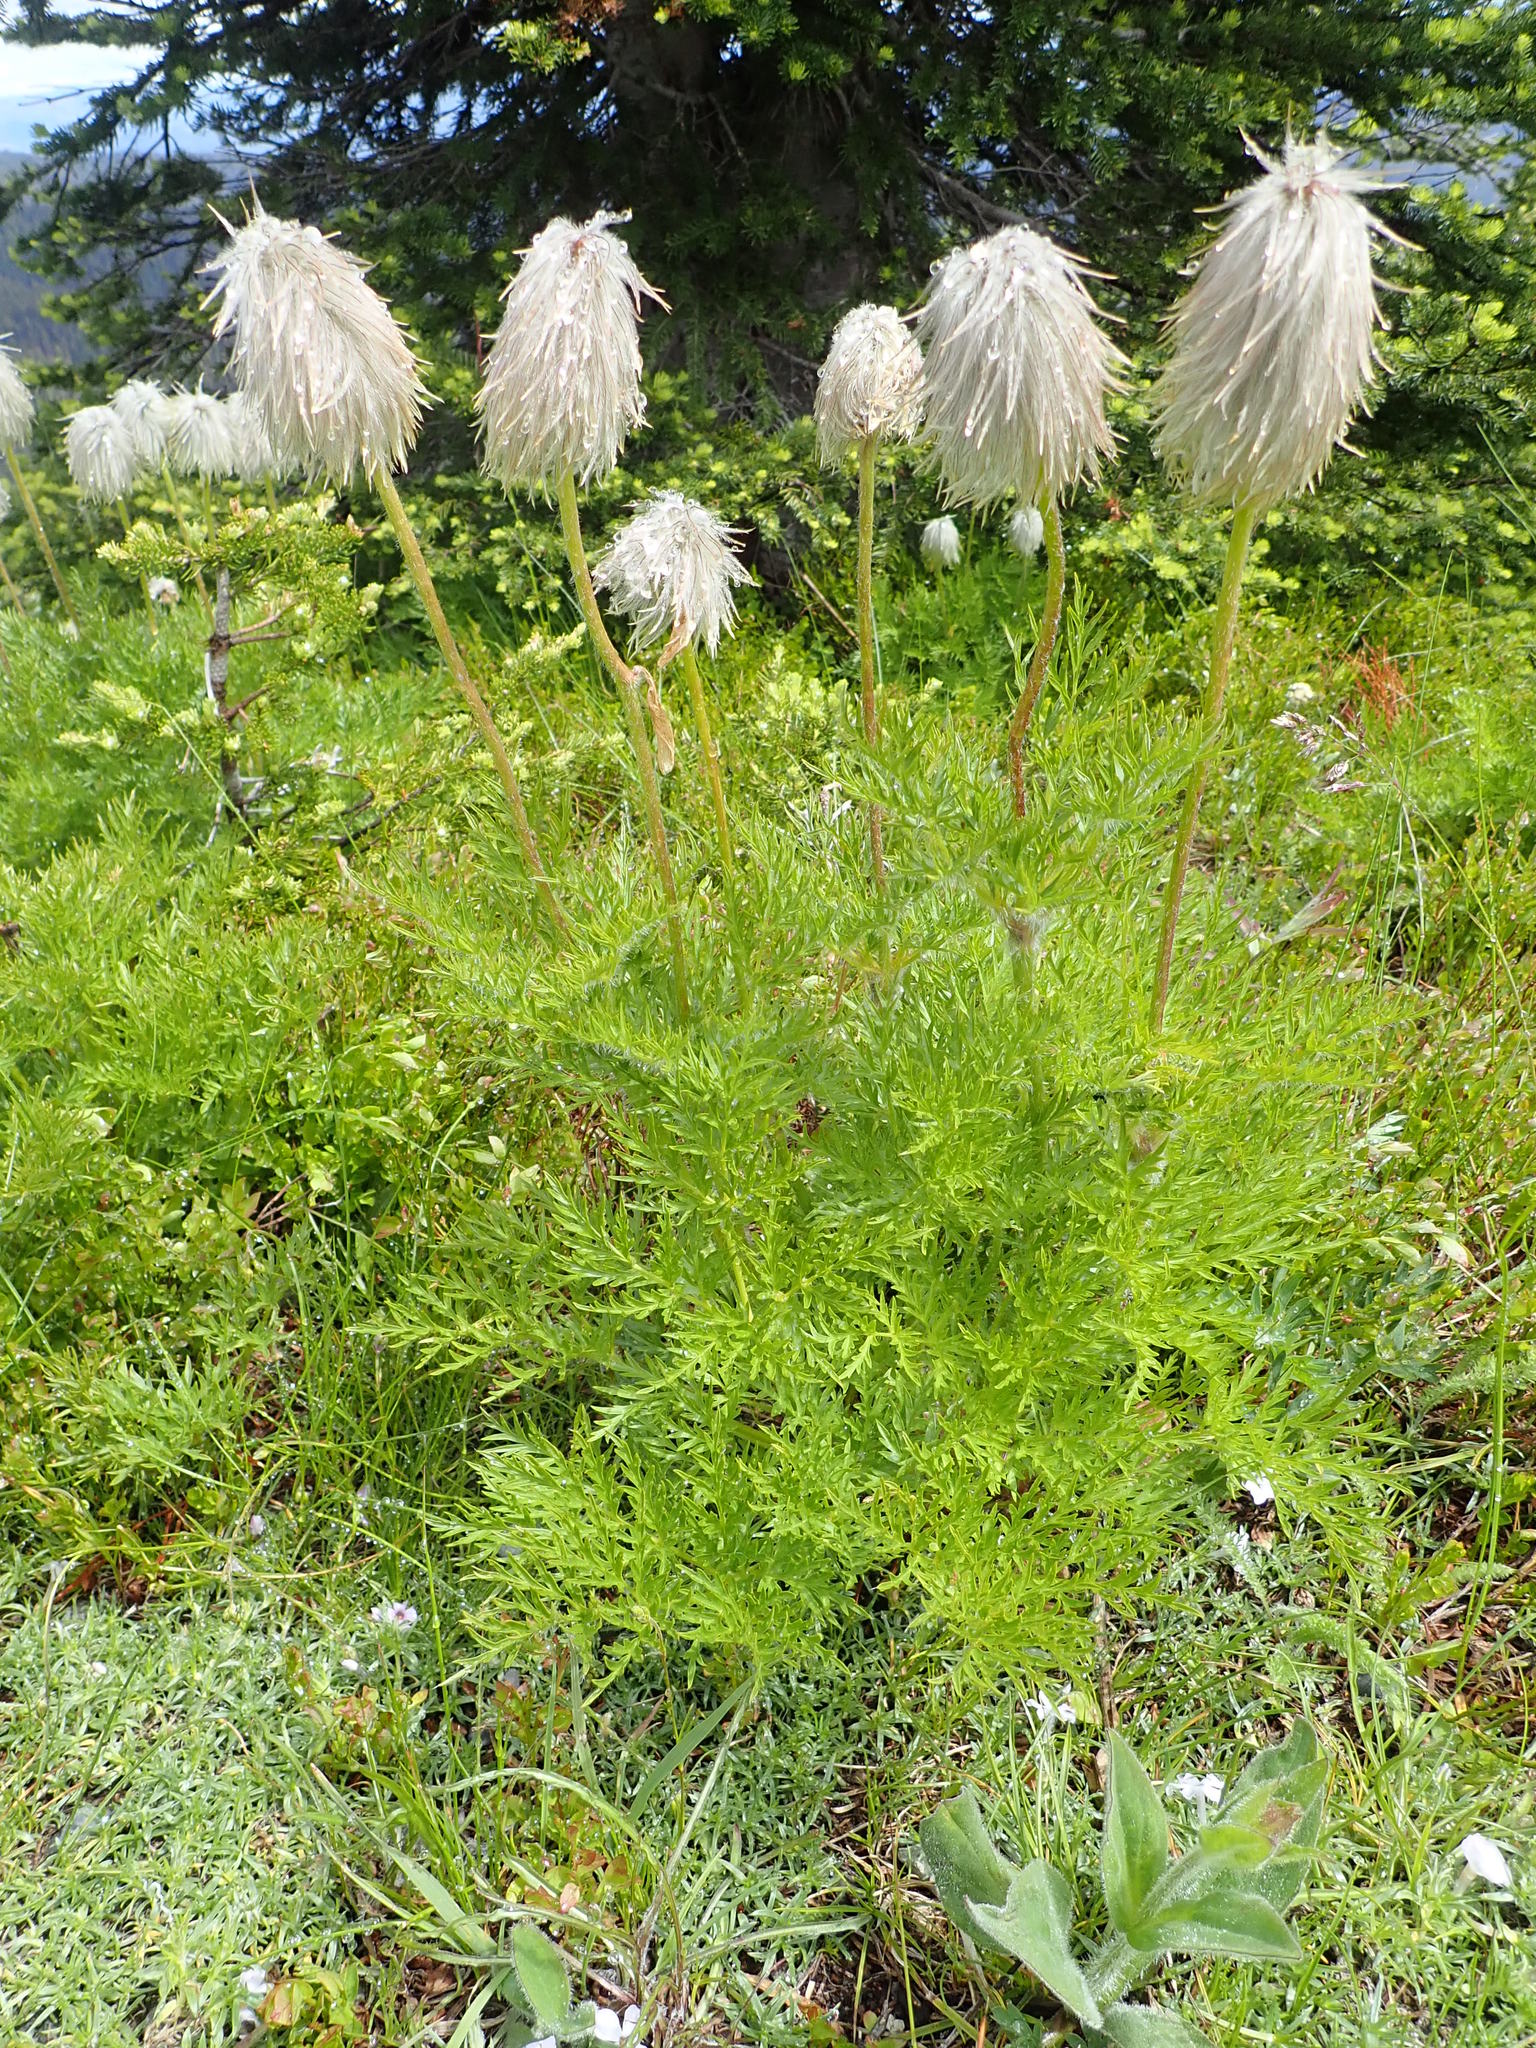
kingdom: Plantae
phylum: Tracheophyta
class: Magnoliopsida
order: Ranunculales
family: Ranunculaceae
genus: Pulsatilla
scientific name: Pulsatilla occidentalis
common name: Mountain pasqueflower
